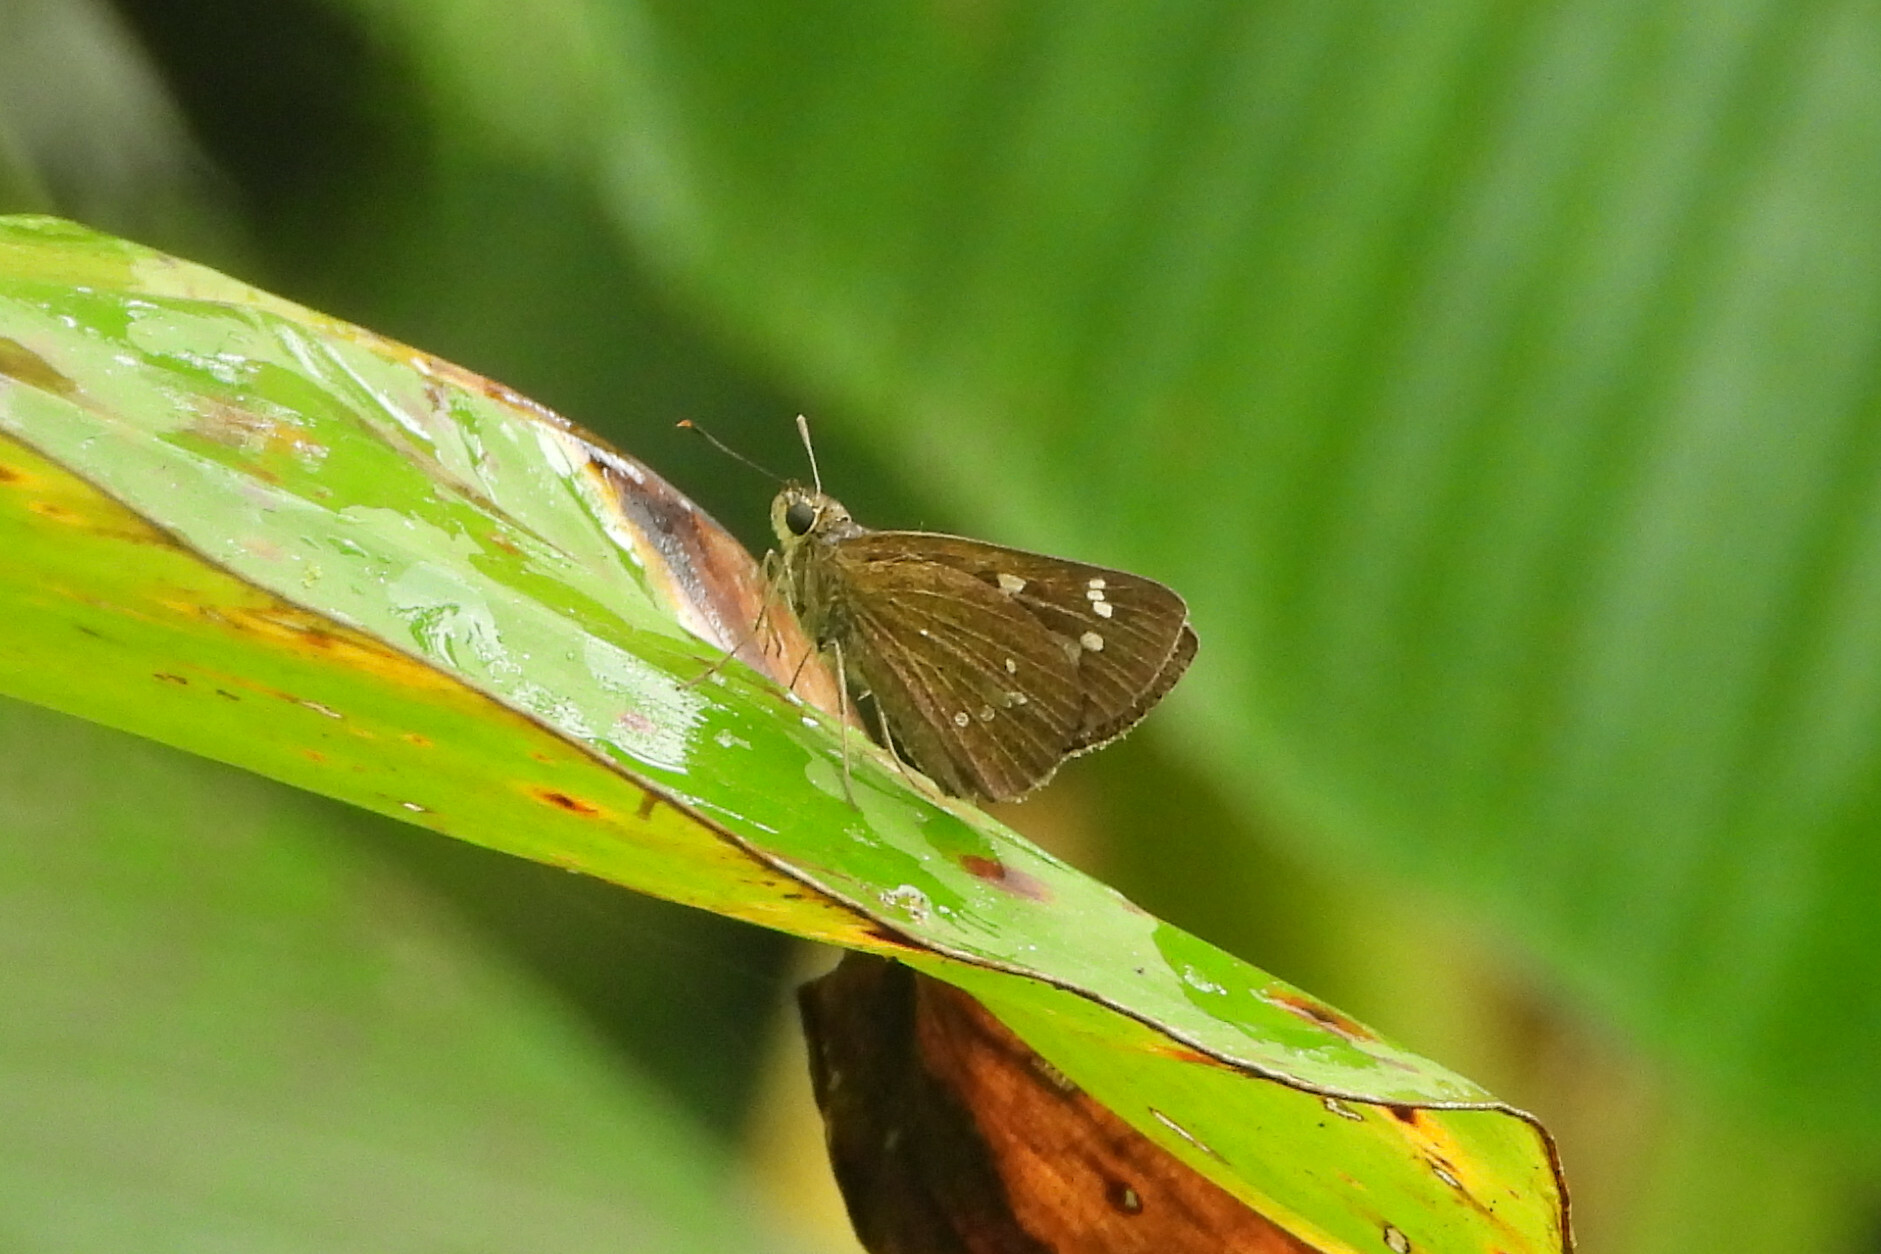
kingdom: Animalia
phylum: Arthropoda
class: Insecta
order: Lepidoptera
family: Hesperiidae
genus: Polytremis
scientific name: Polytremis lubricans
